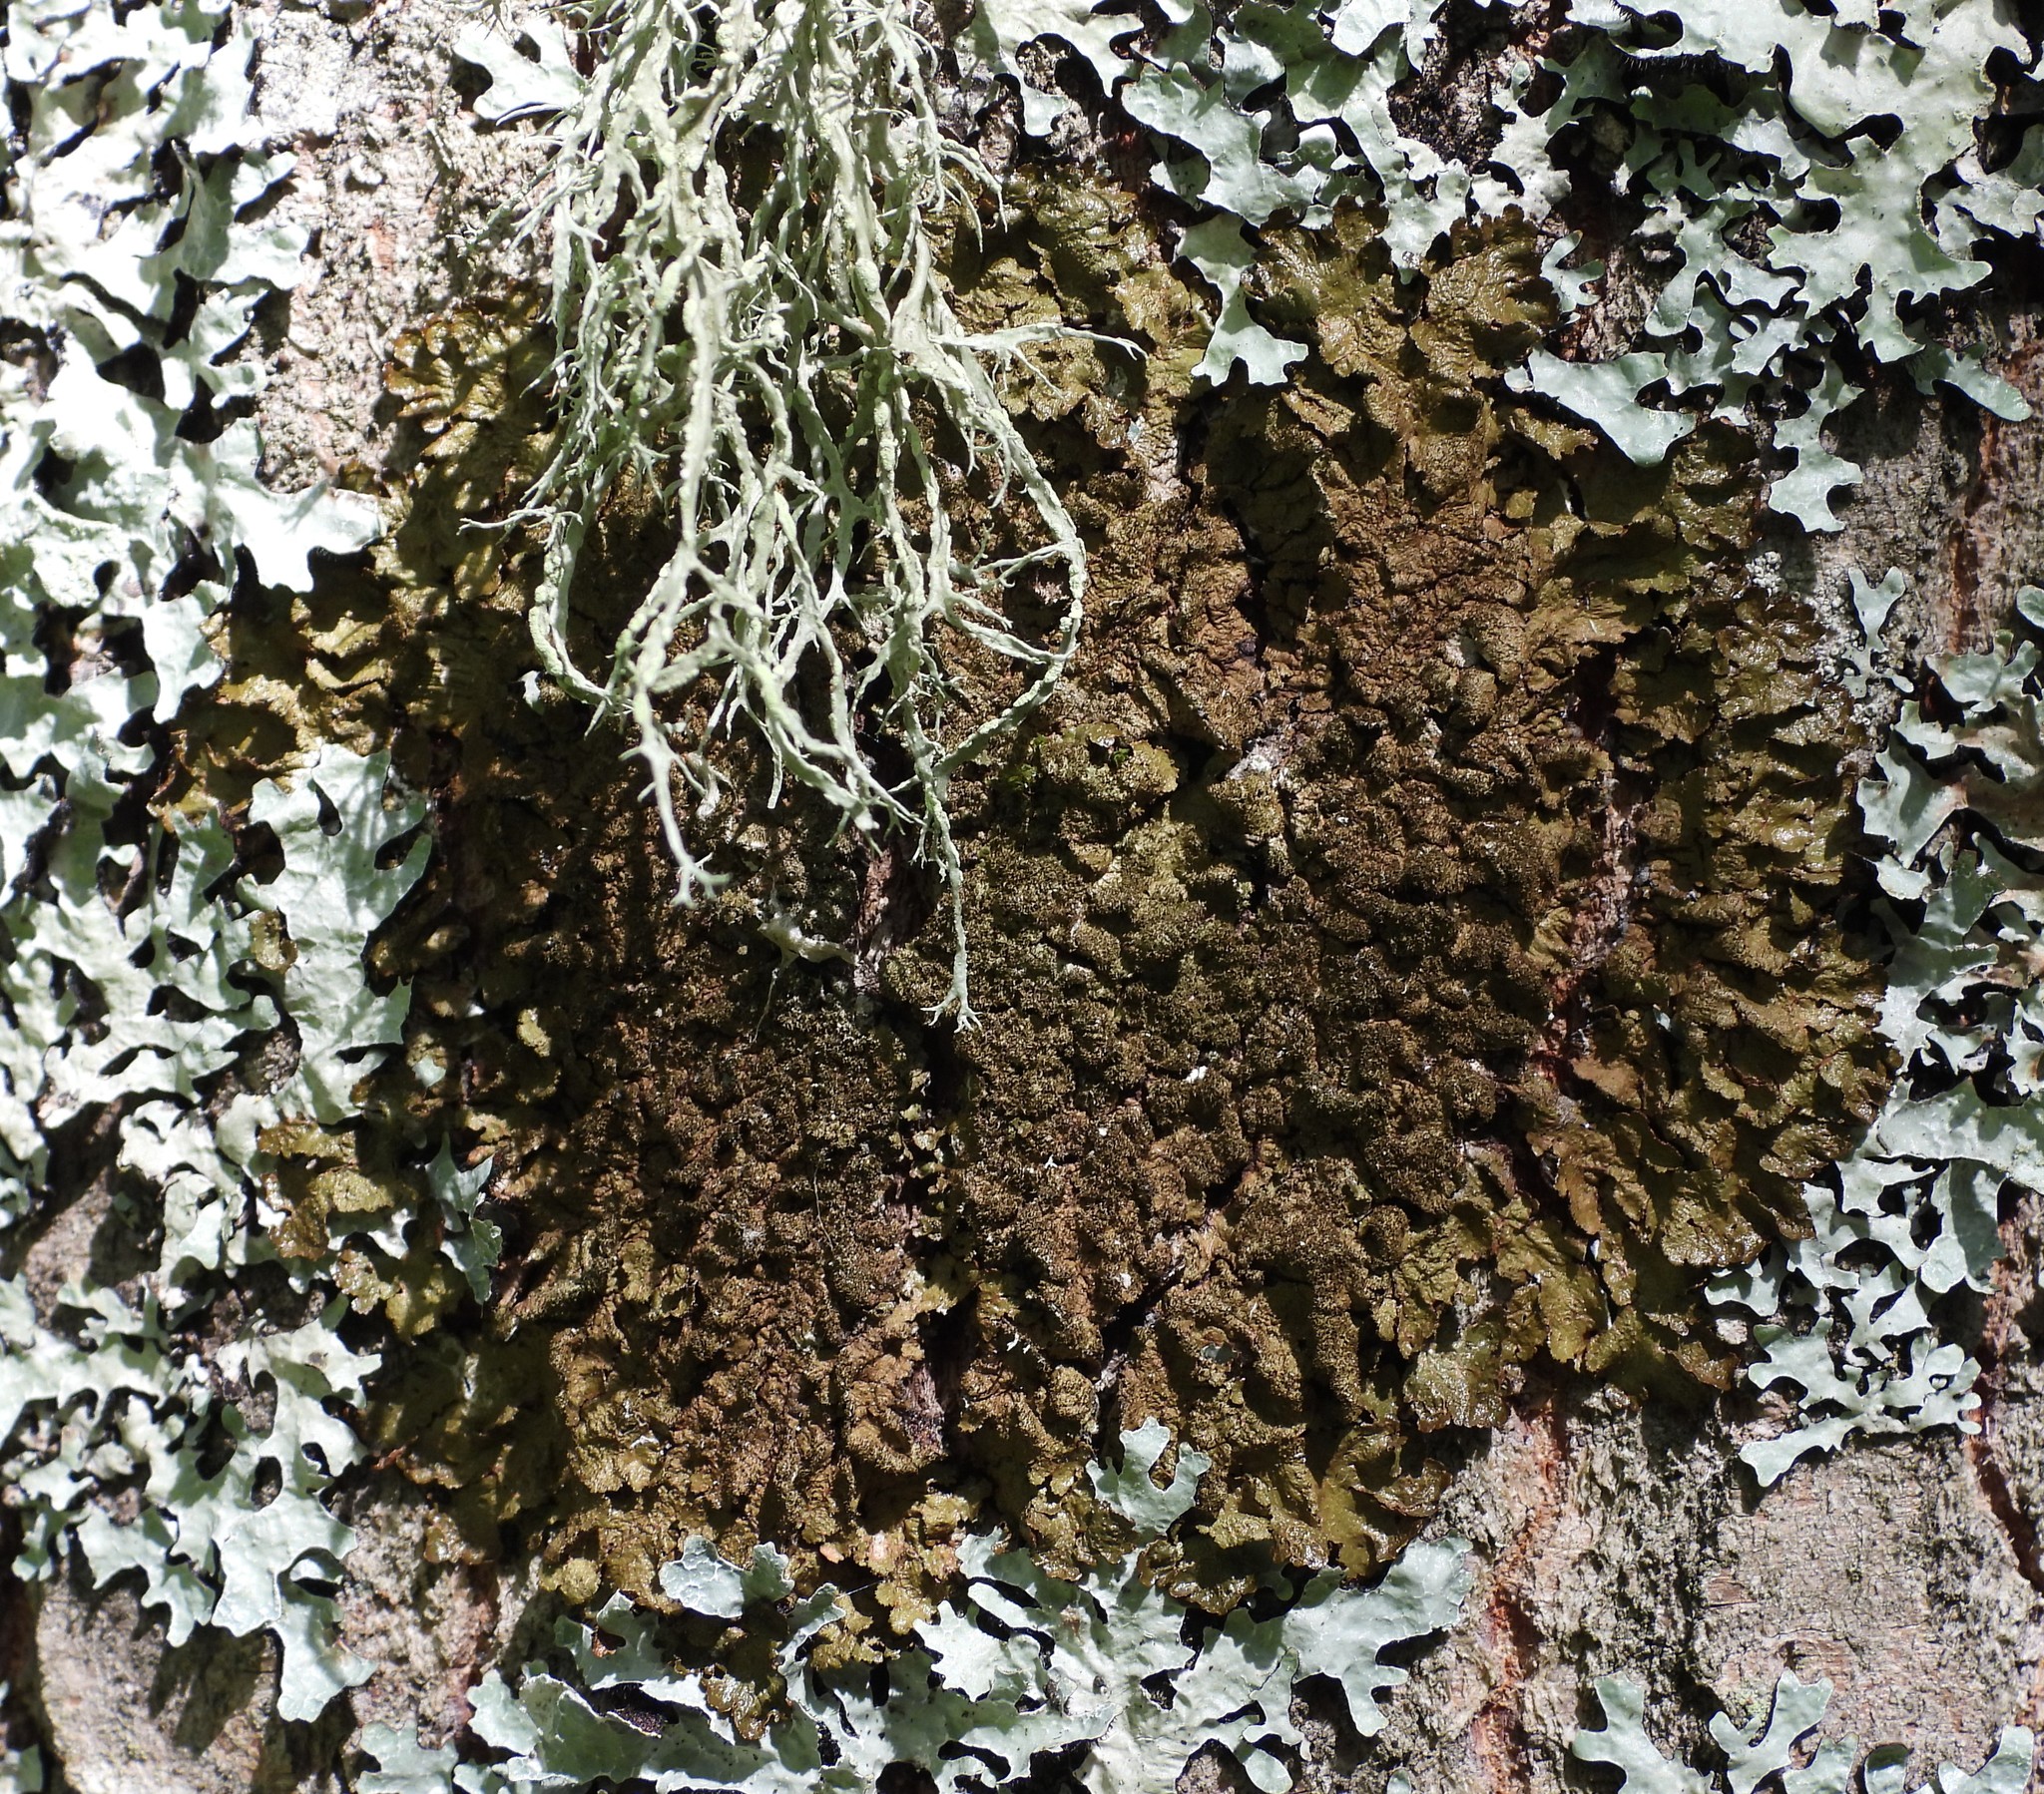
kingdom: Fungi
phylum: Ascomycota
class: Lecanoromycetes
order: Lecanorales
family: Parmeliaceae
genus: Melanelixia
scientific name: Melanelixia glabratula
